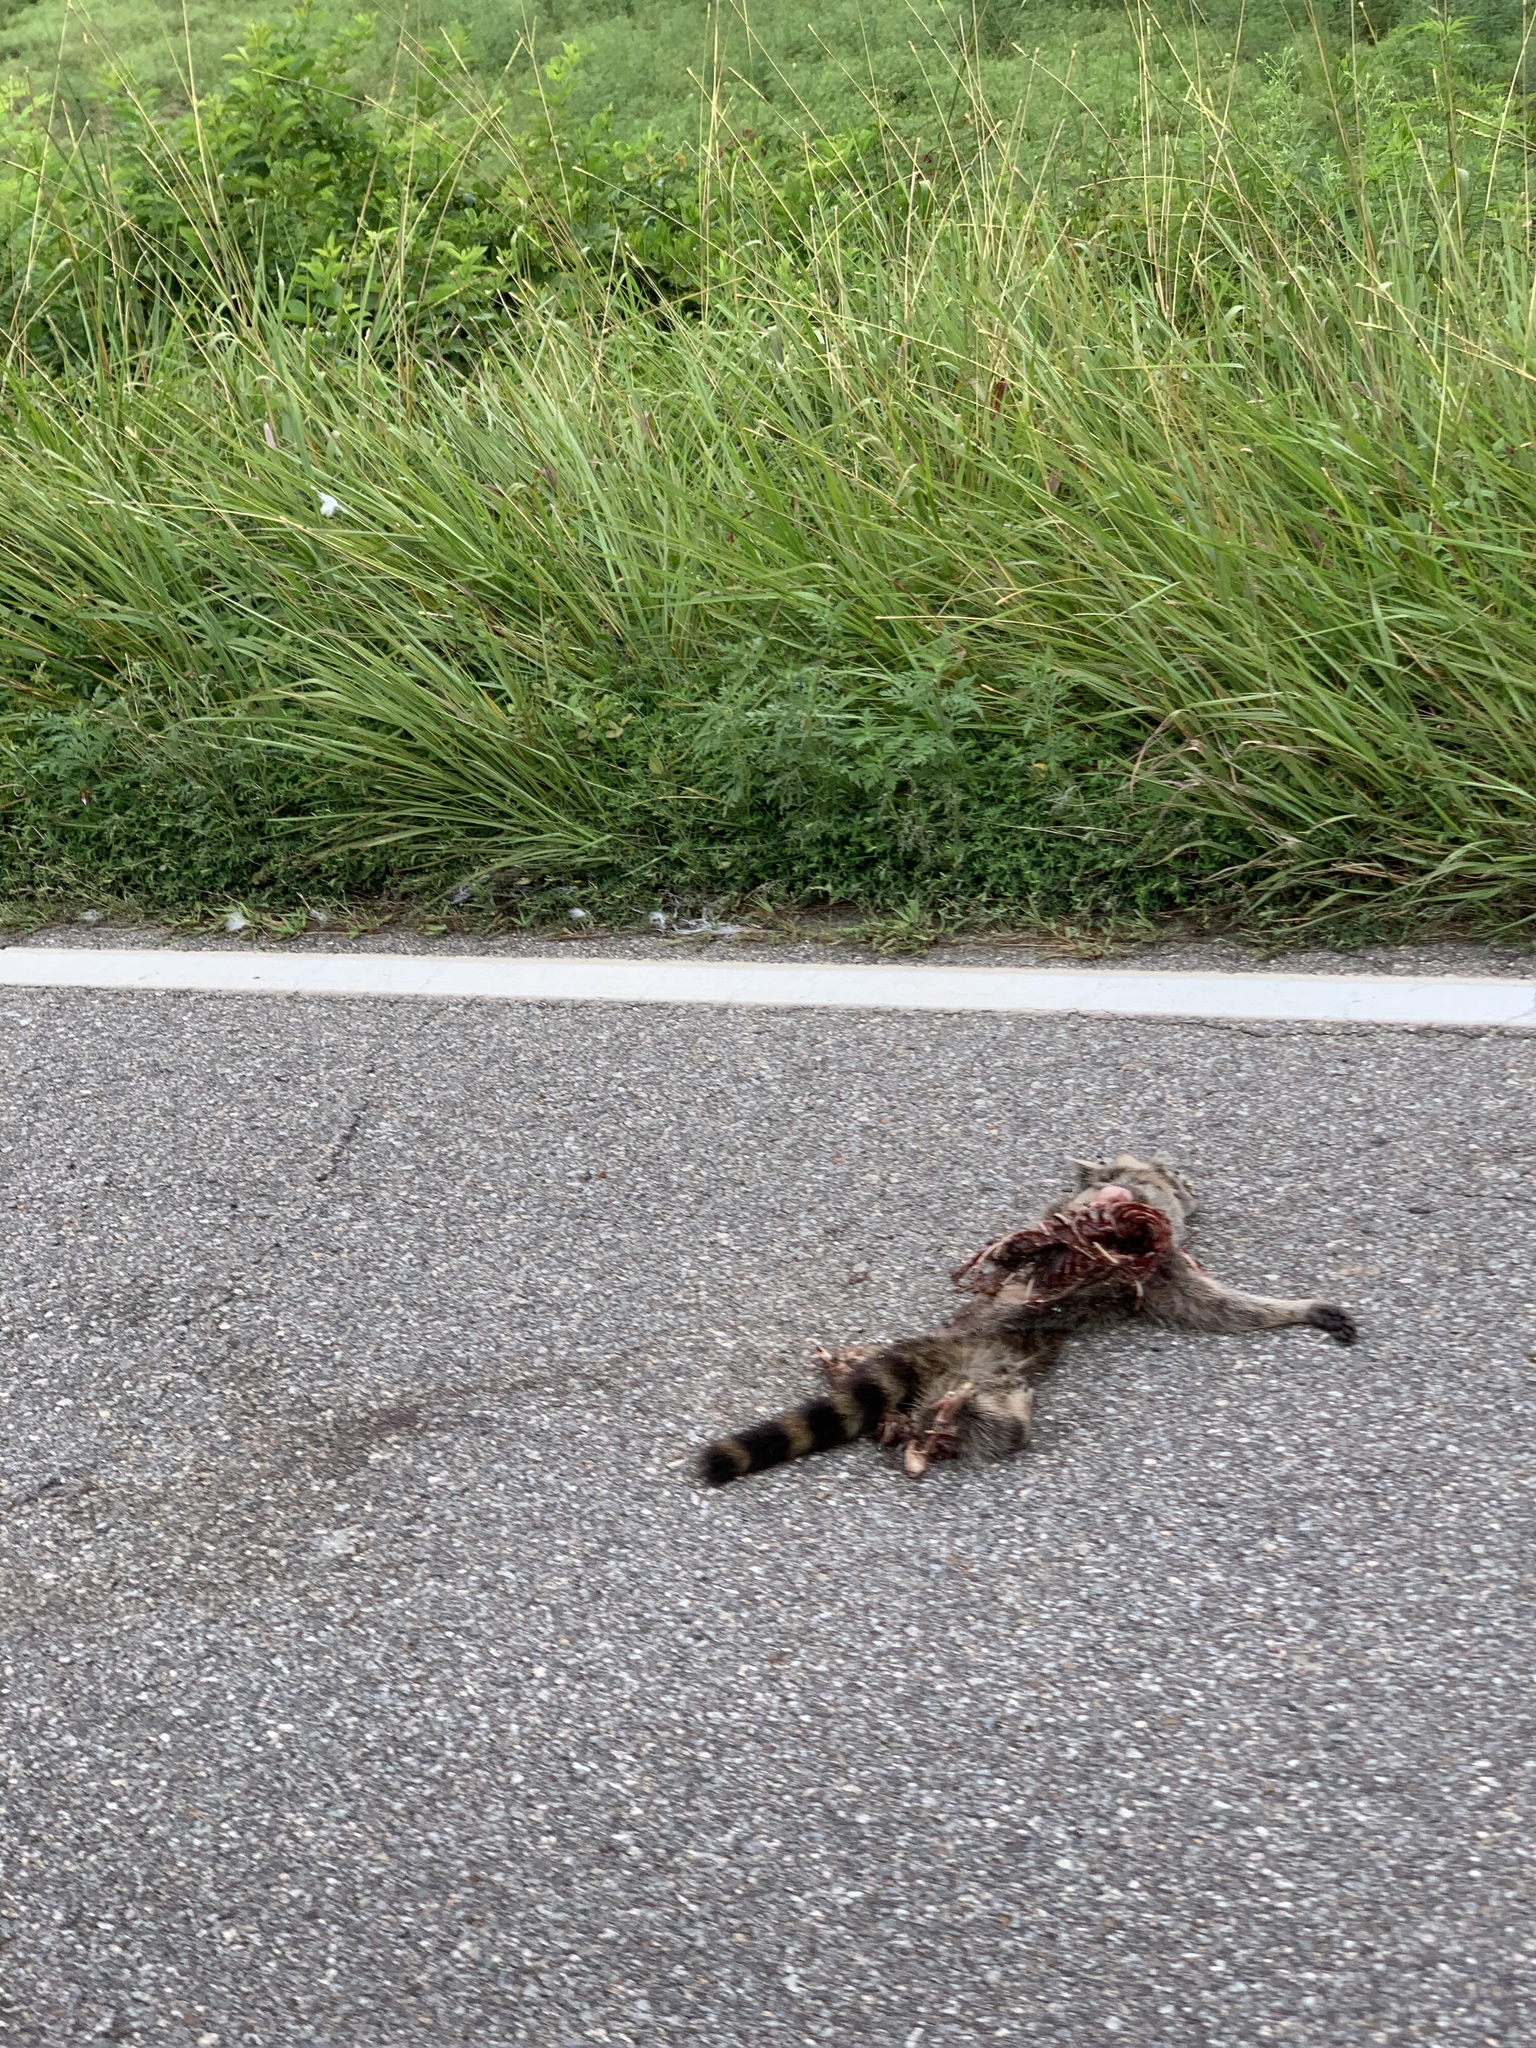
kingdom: Animalia
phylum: Chordata
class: Mammalia
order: Carnivora
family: Procyonidae
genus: Procyon
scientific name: Procyon lotor
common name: Raccoon
